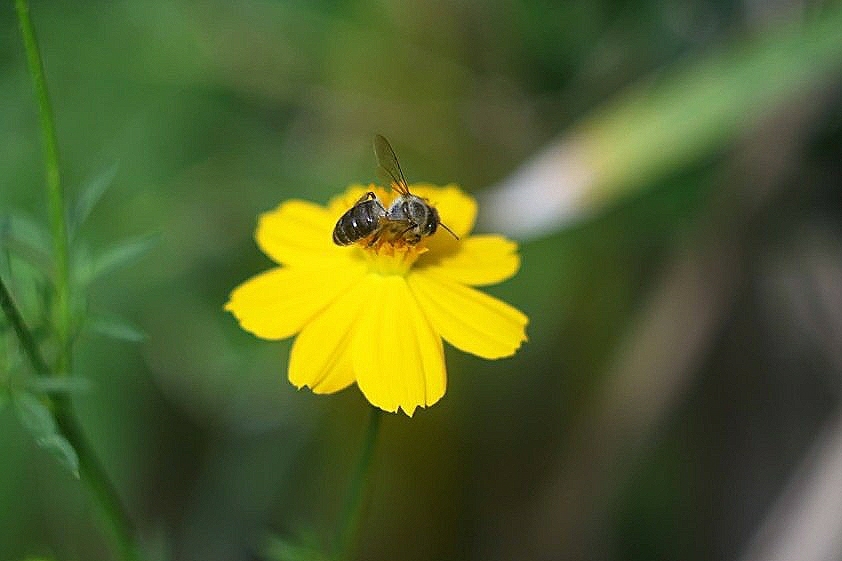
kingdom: Animalia
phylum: Arthropoda
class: Insecta
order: Hymenoptera
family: Apidae
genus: Apis
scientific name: Apis mellifera
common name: Honey bee
